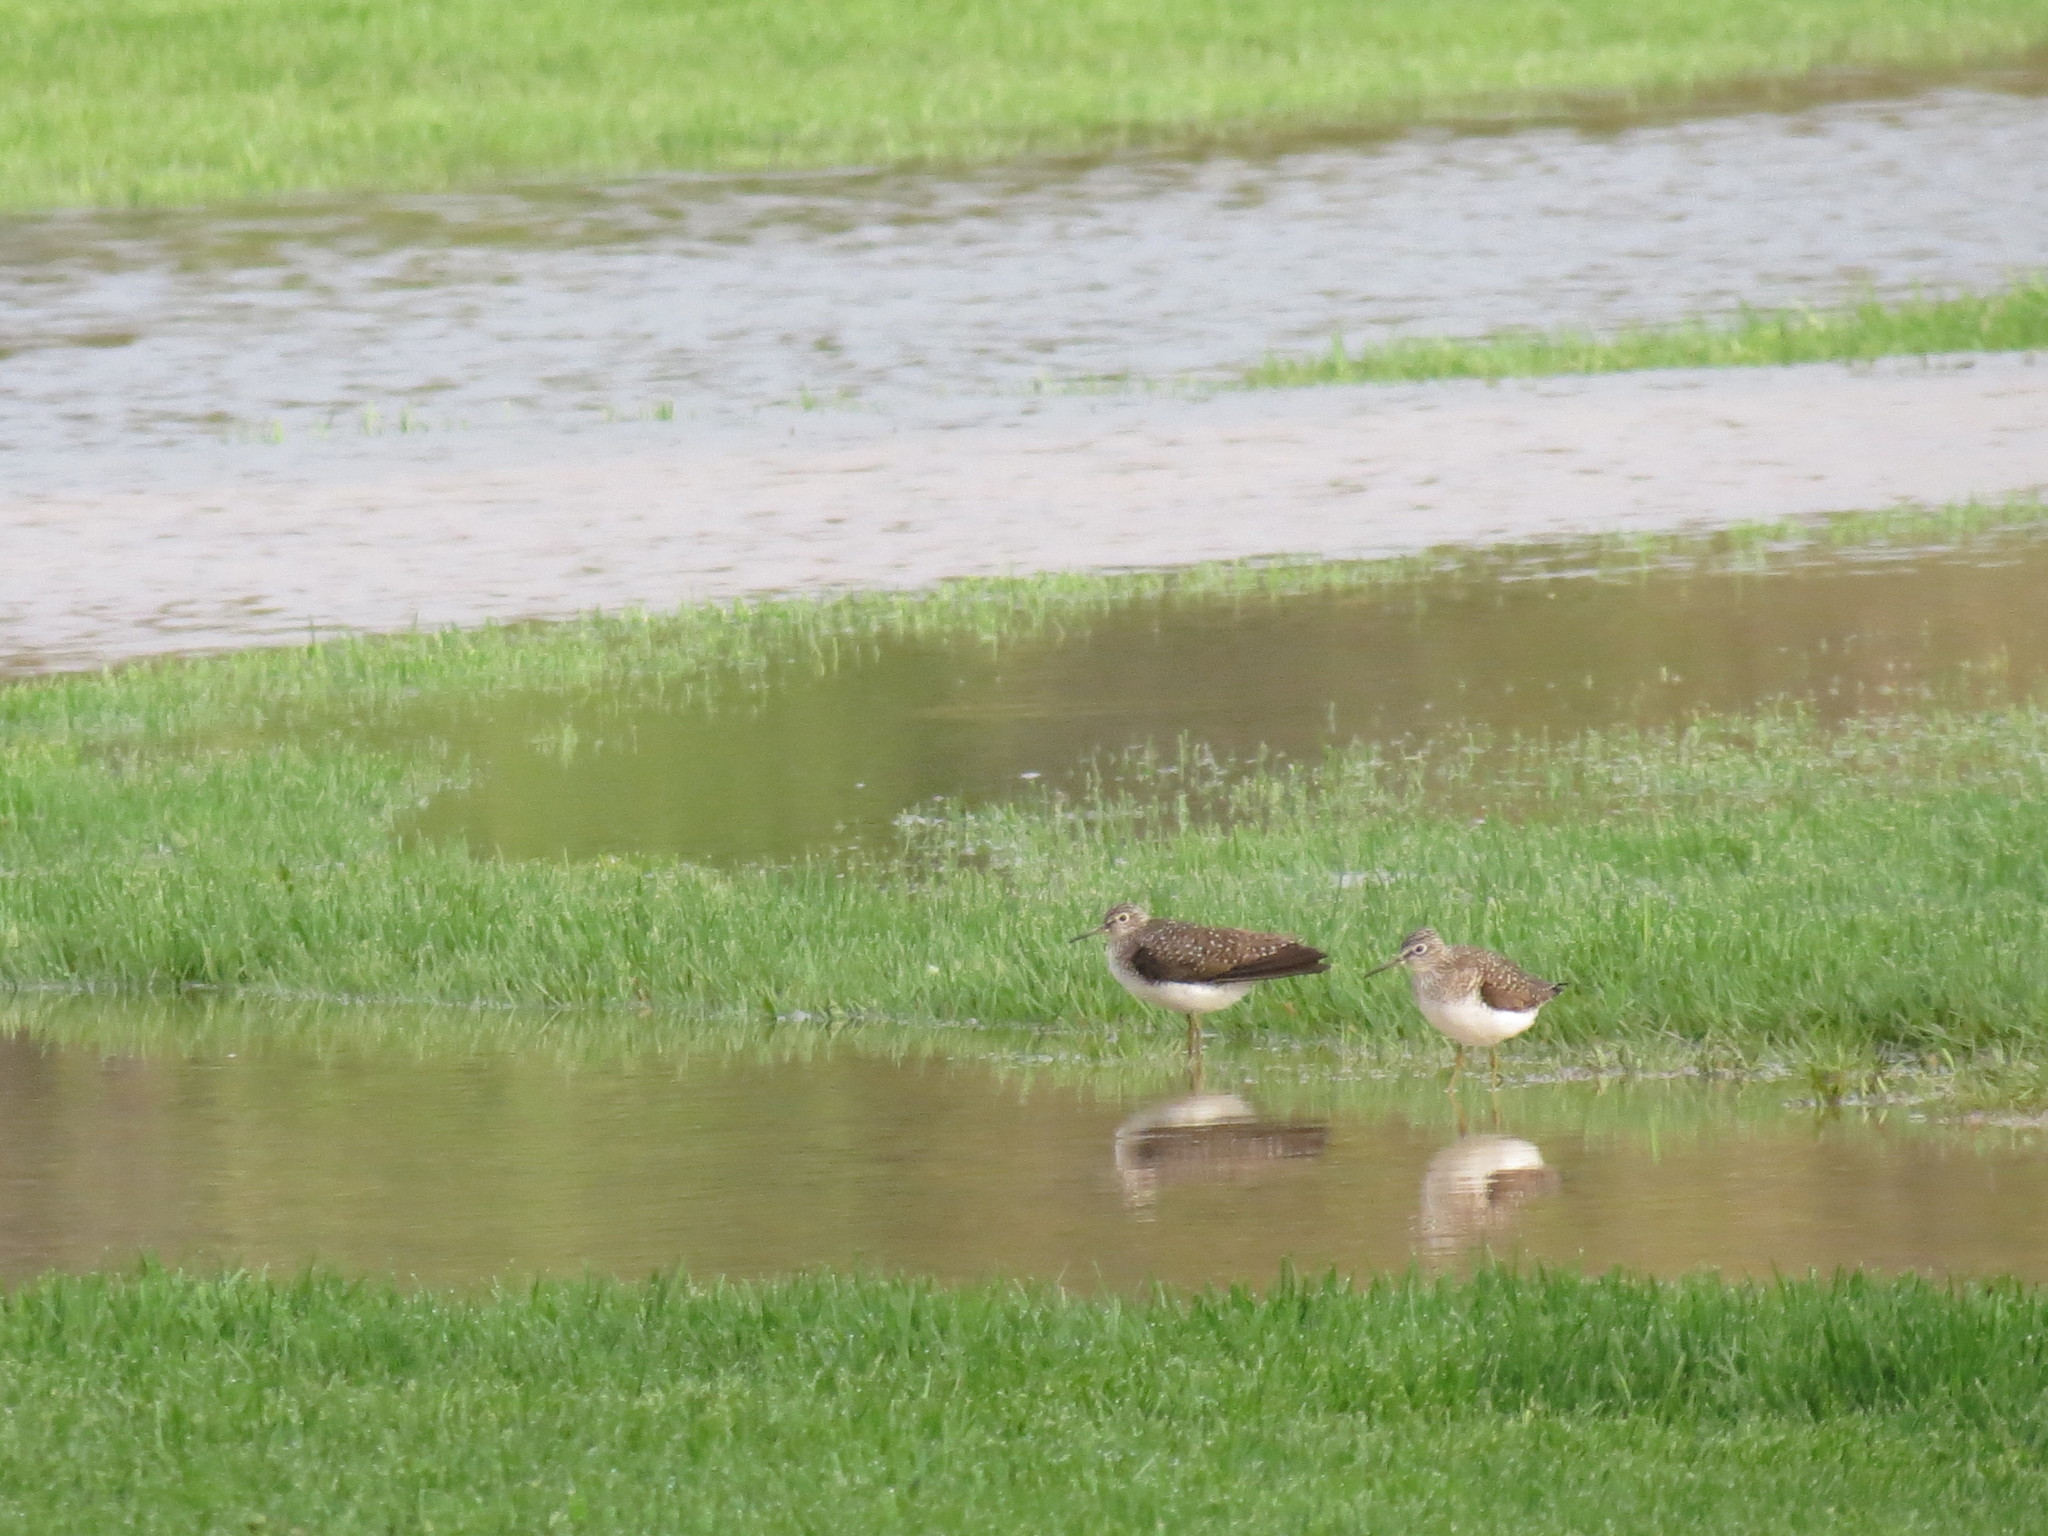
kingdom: Animalia
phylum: Chordata
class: Aves
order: Charadriiformes
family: Scolopacidae
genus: Tringa
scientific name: Tringa solitaria
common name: Solitary sandpiper
